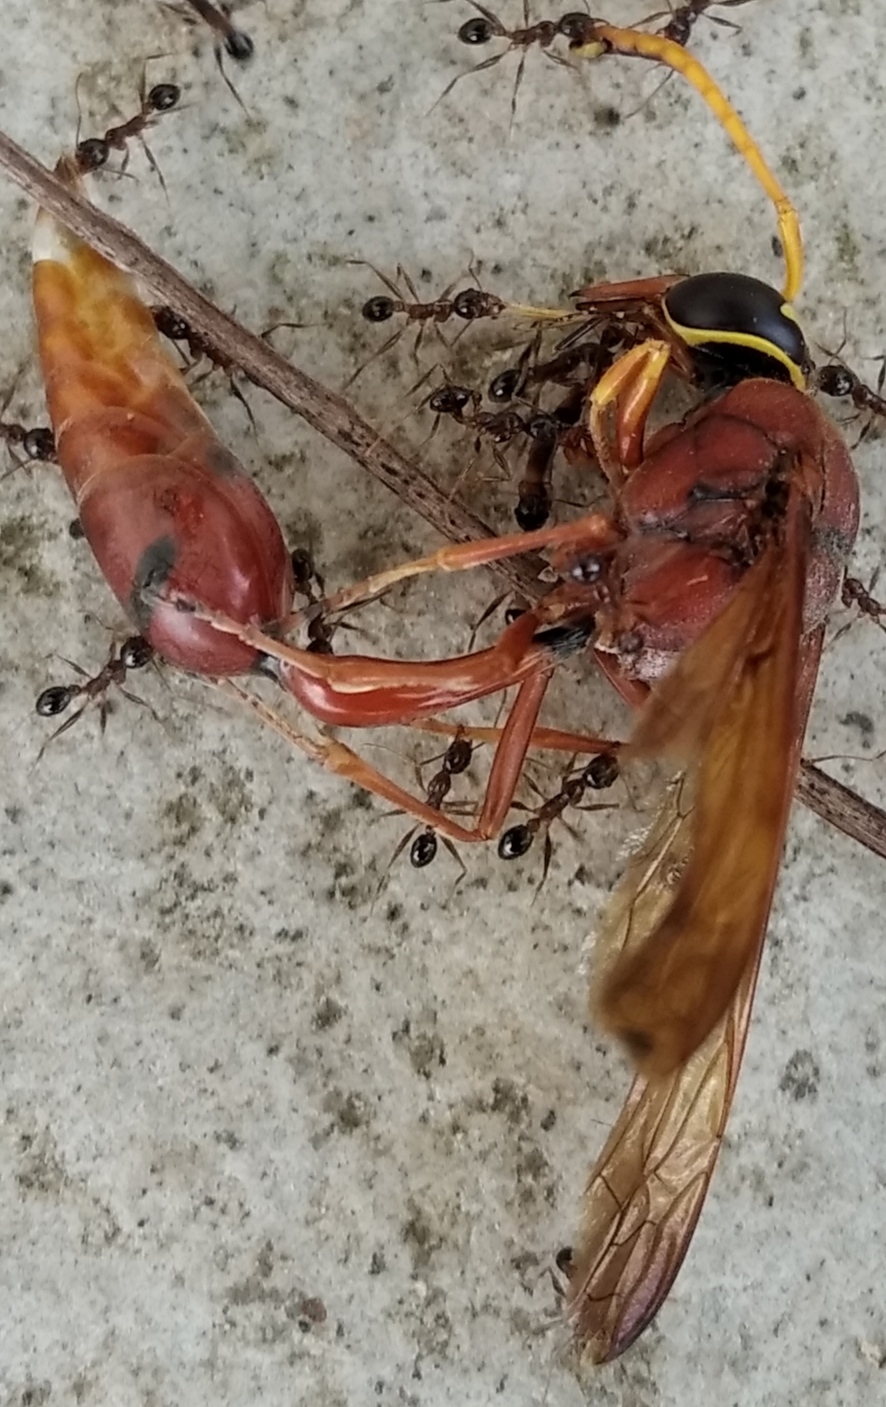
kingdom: Animalia
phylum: Arthropoda
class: Insecta
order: Hymenoptera
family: Eumenidae
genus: Delta
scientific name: Delta conoideum
